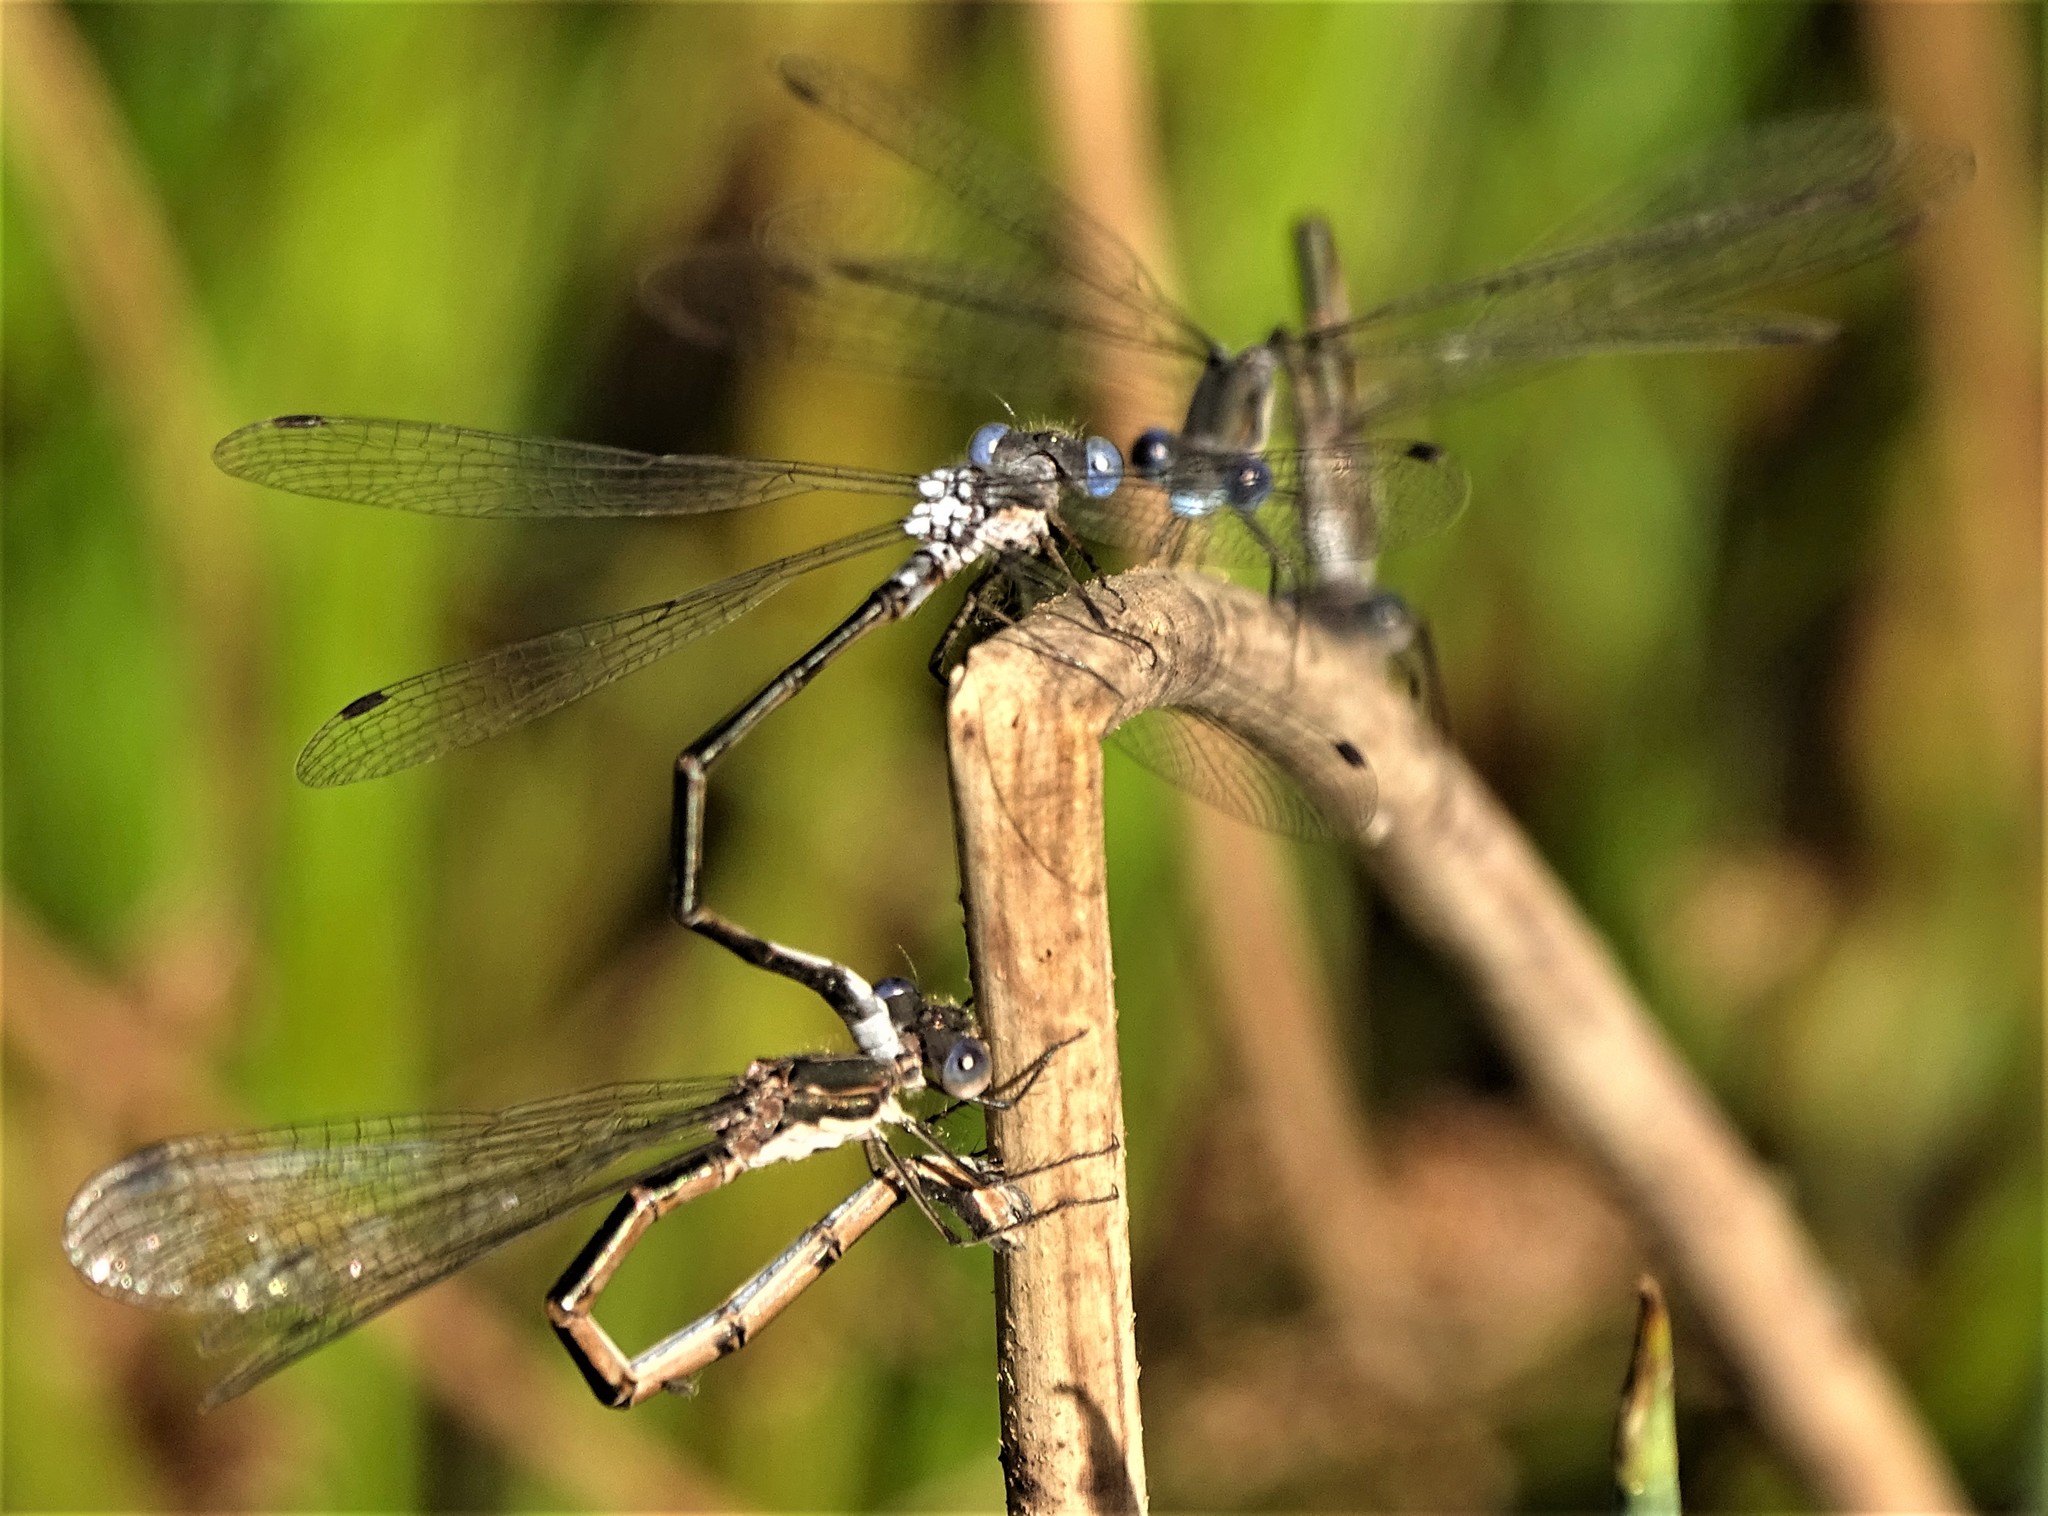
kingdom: Animalia
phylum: Arthropoda
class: Insecta
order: Odonata
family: Lestidae
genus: Lestes
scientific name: Lestes congener
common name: Spotted spreadwing
